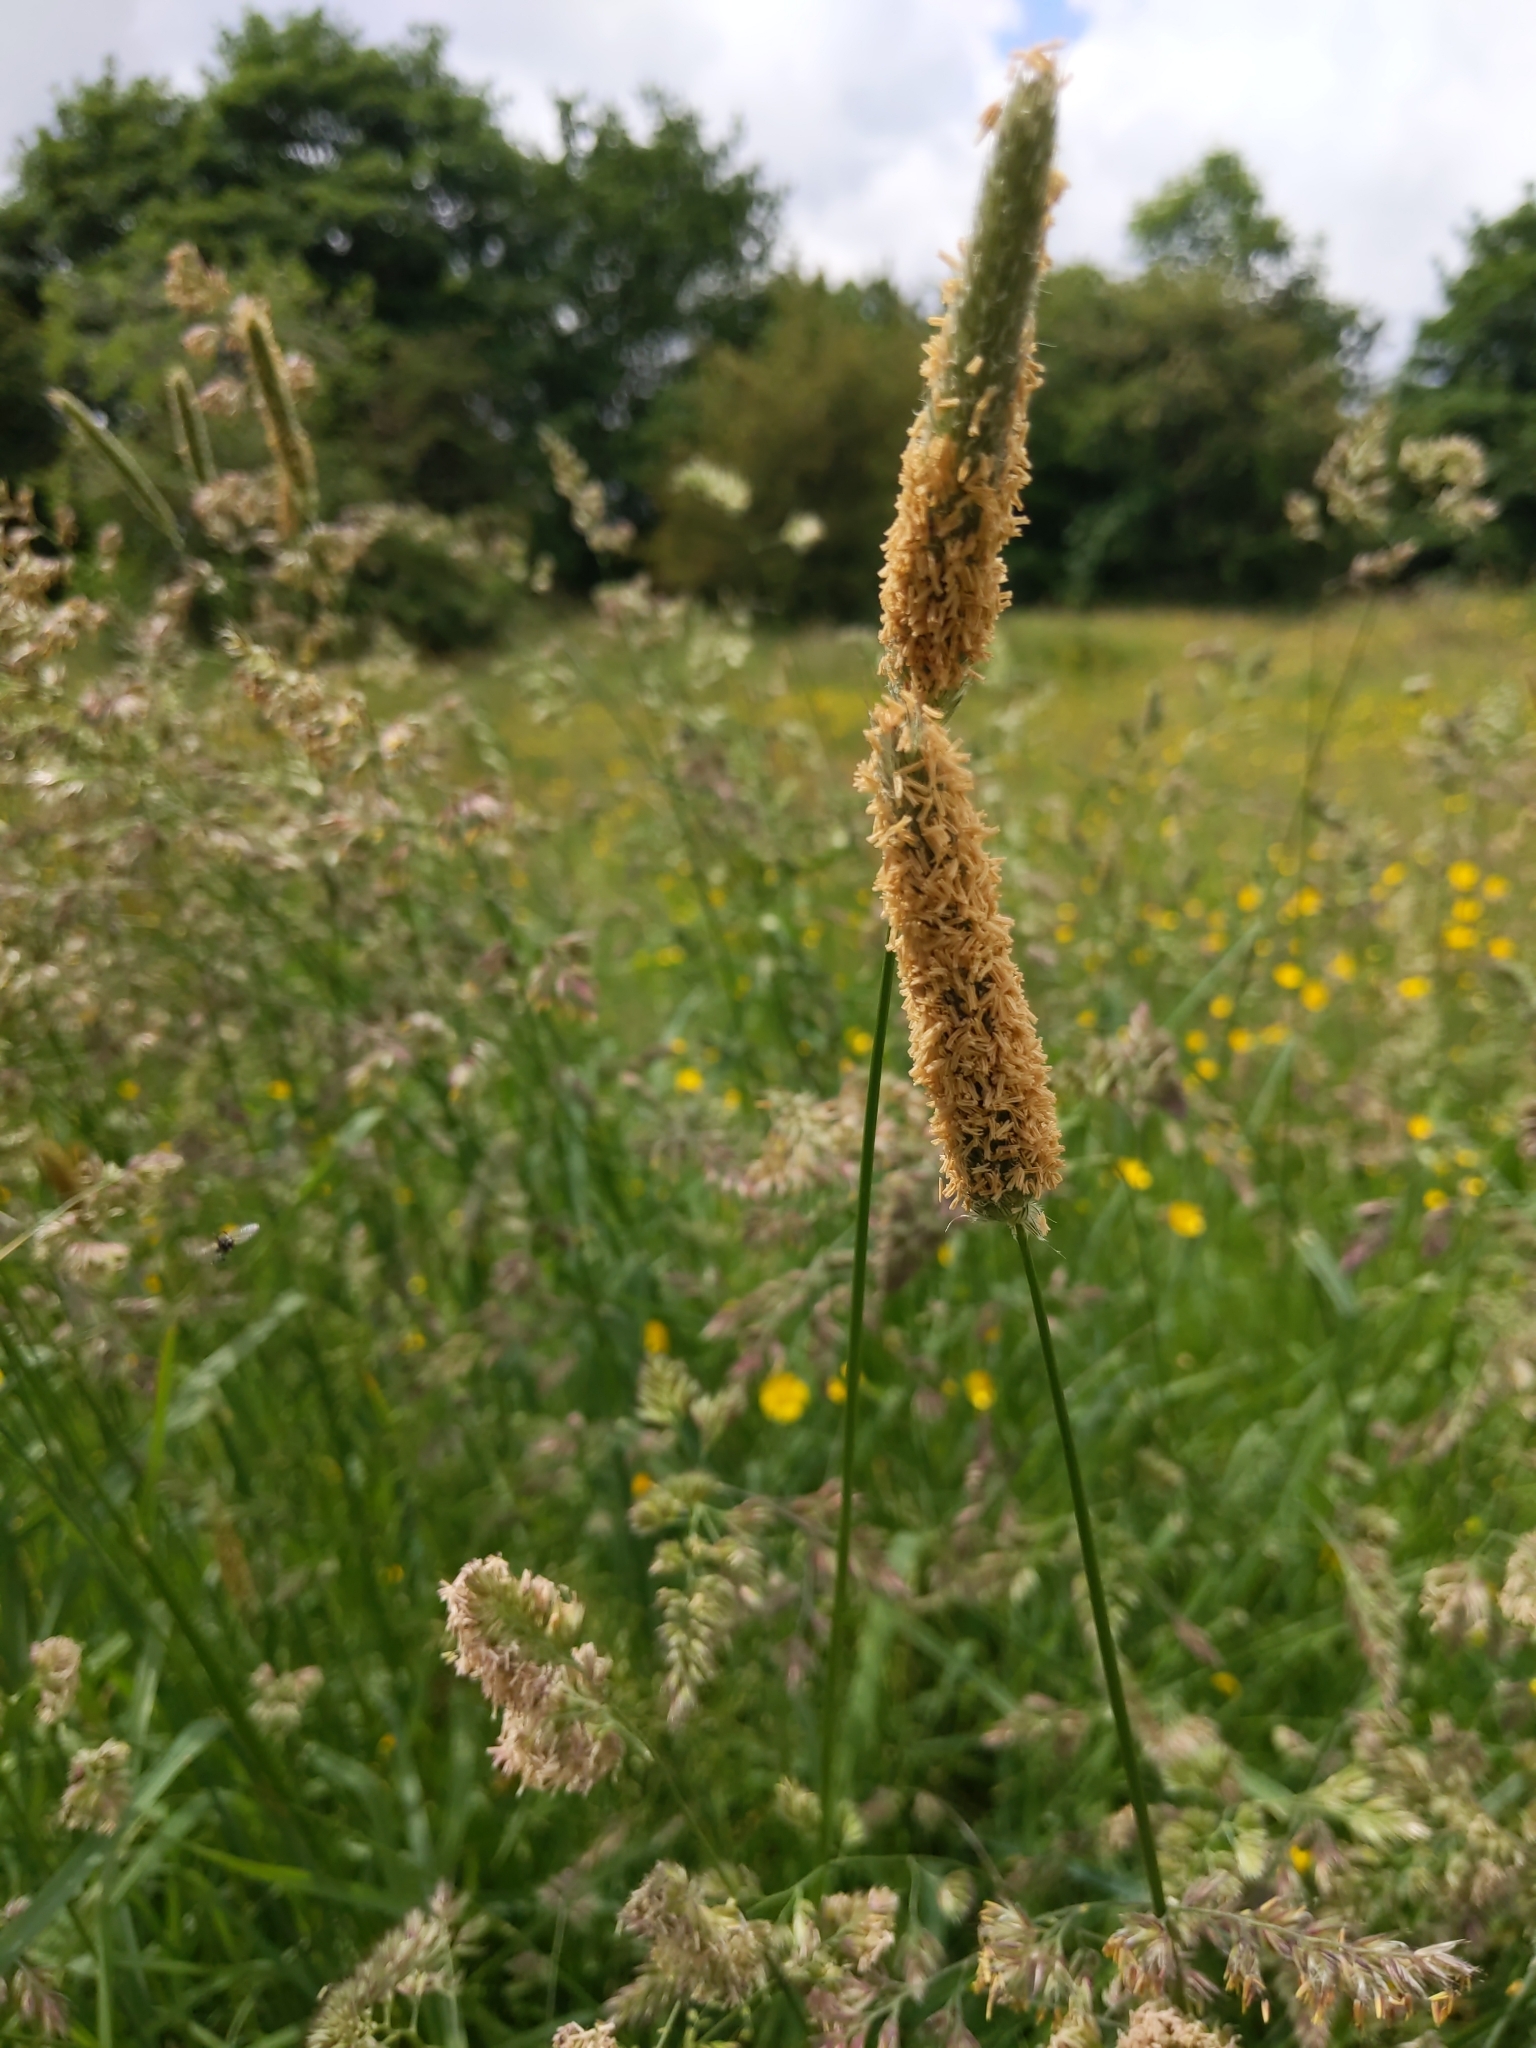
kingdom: Plantae
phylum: Tracheophyta
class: Liliopsida
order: Poales
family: Poaceae
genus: Alopecurus
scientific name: Alopecurus pratensis
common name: Meadow foxtail
